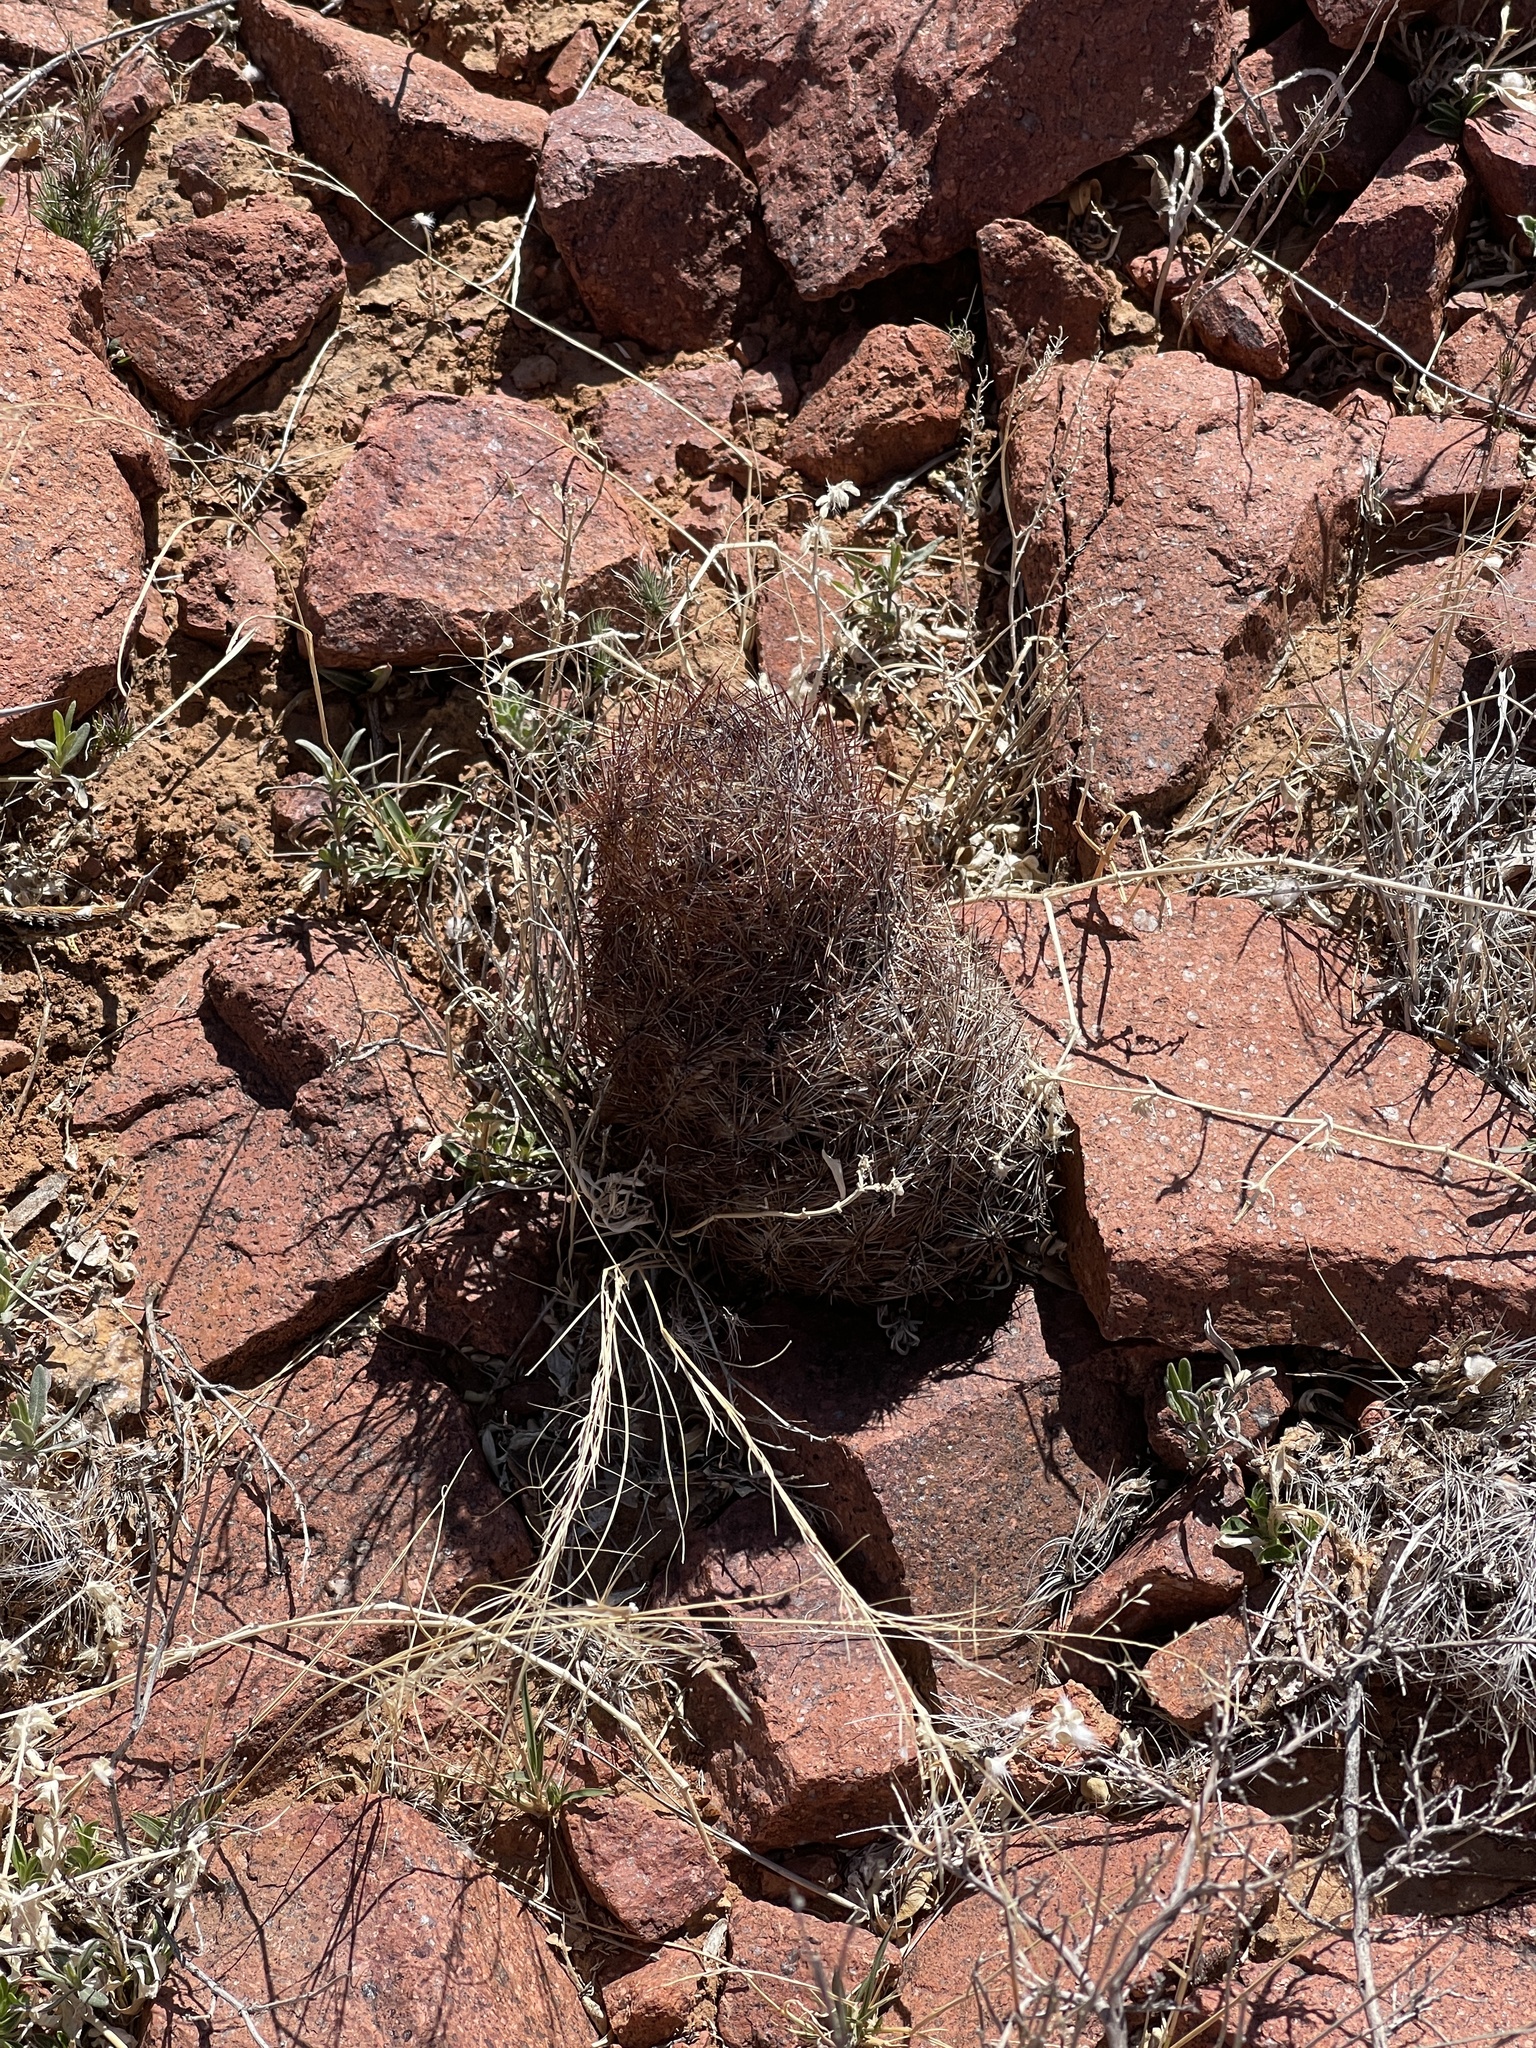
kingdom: Plantae
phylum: Tracheophyta
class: Magnoliopsida
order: Caryophyllales
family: Cactaceae
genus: Sclerocactus
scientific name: Sclerocactus intertextus
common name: White fish-hook cactus
